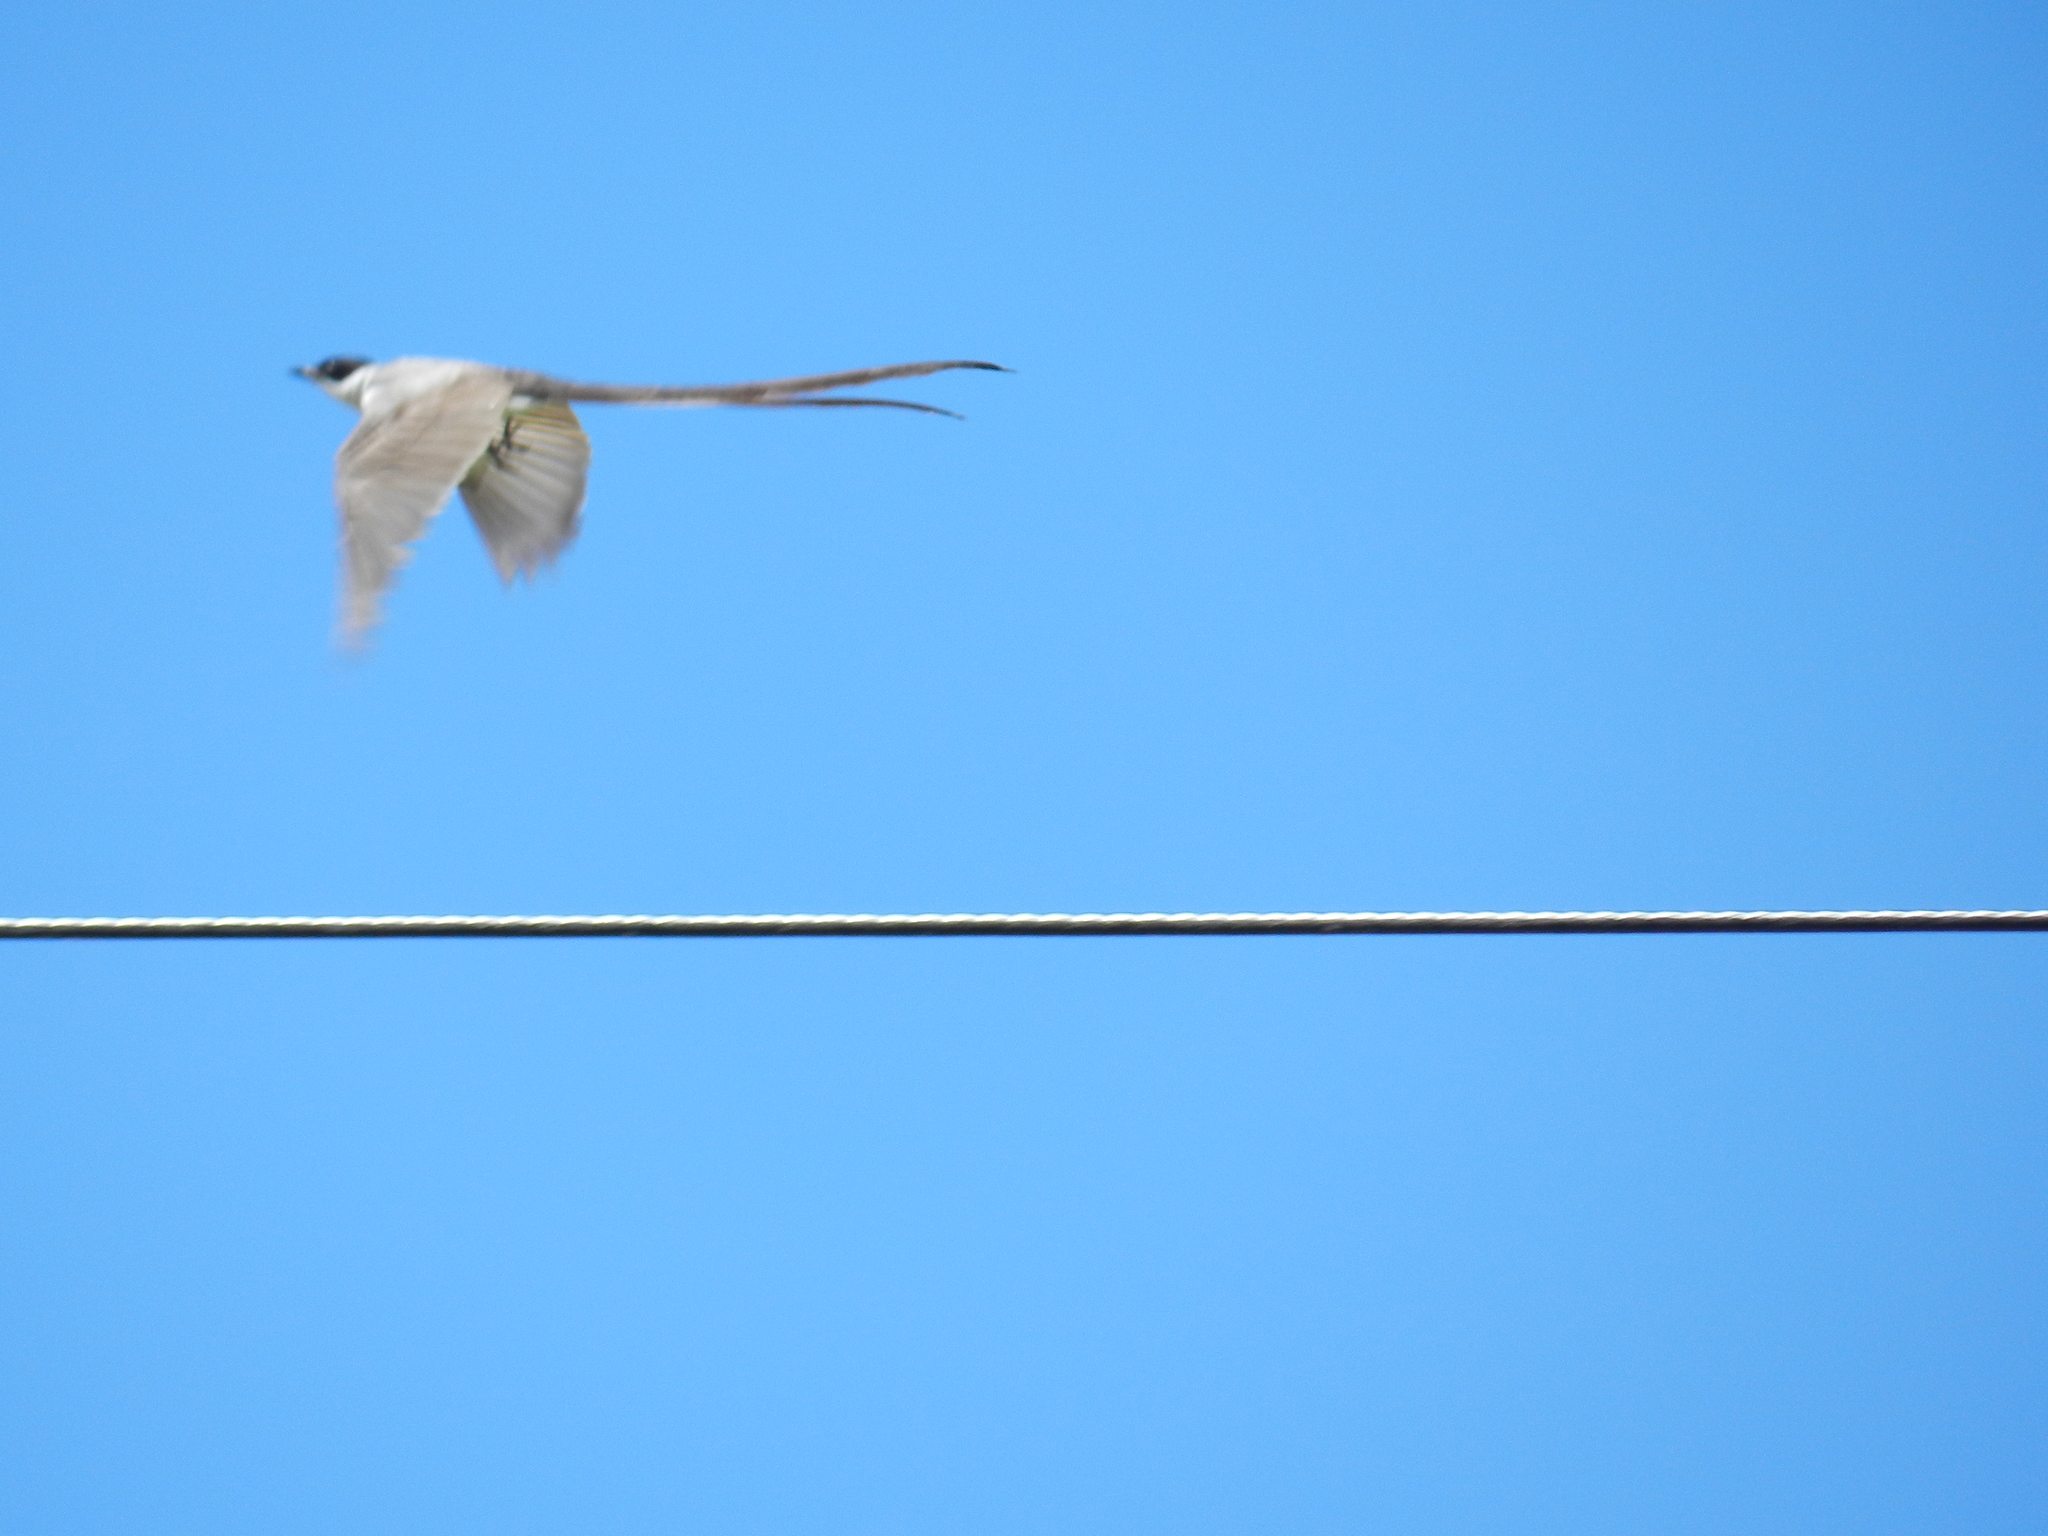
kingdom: Animalia
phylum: Chordata
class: Aves
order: Passeriformes
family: Tyrannidae
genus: Tyrannus
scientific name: Tyrannus savana
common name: Fork-tailed flycatcher
